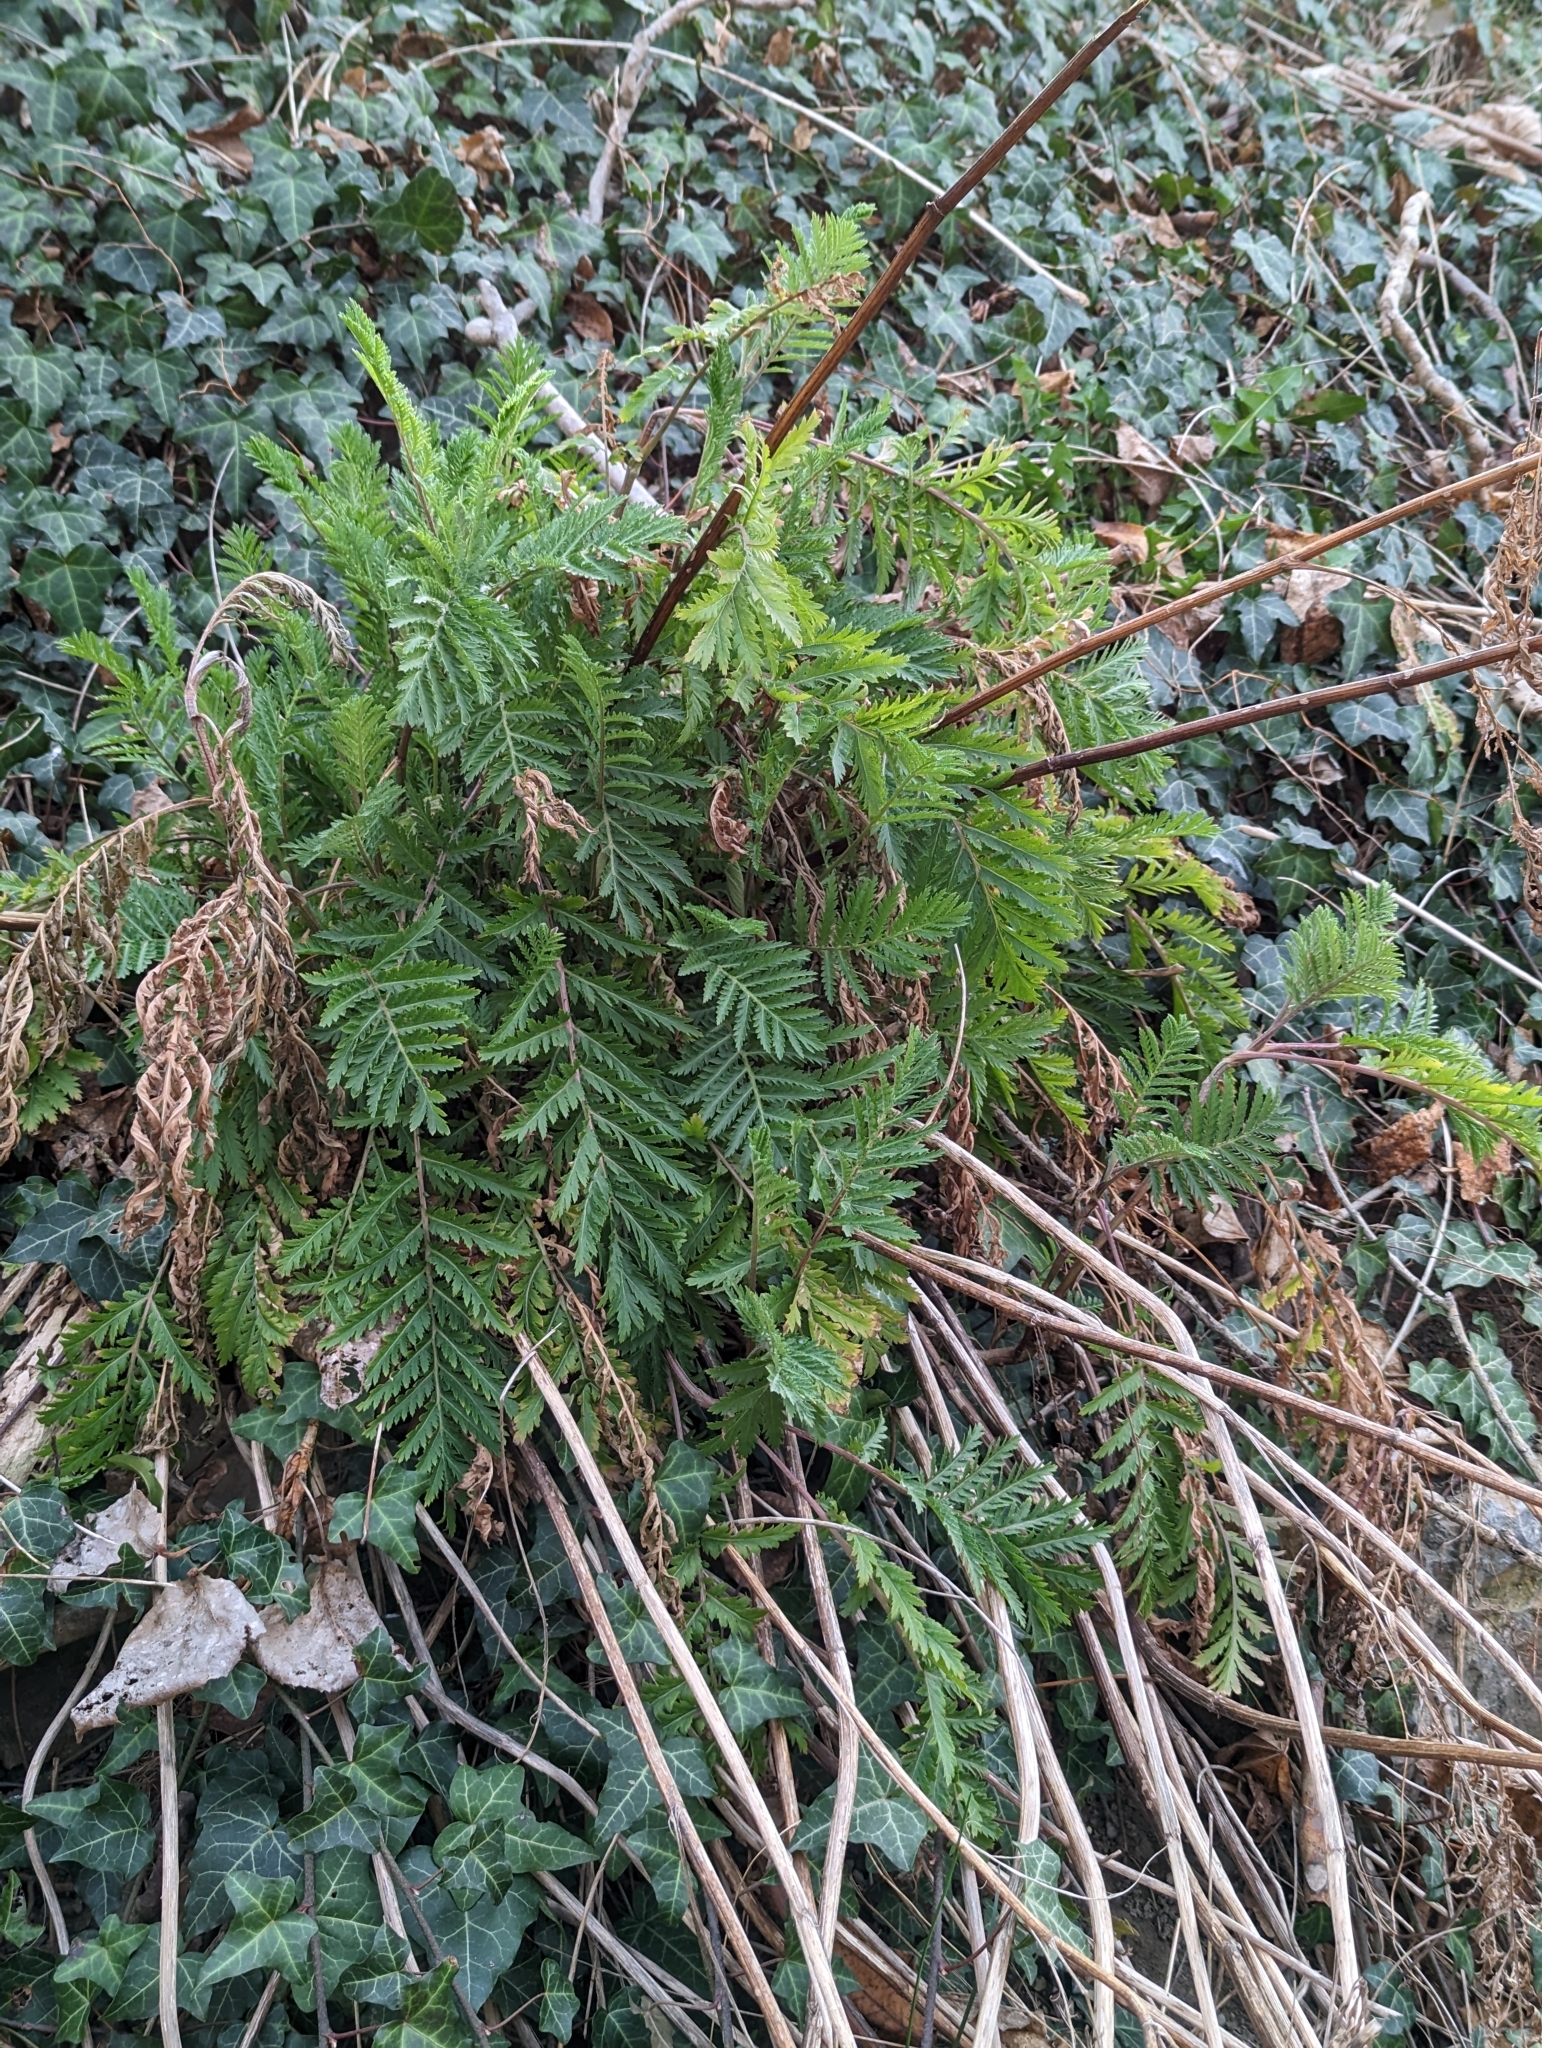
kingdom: Plantae
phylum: Tracheophyta
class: Magnoliopsida
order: Asterales
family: Asteraceae
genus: Tanacetum
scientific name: Tanacetum vulgare
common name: Common tansy
